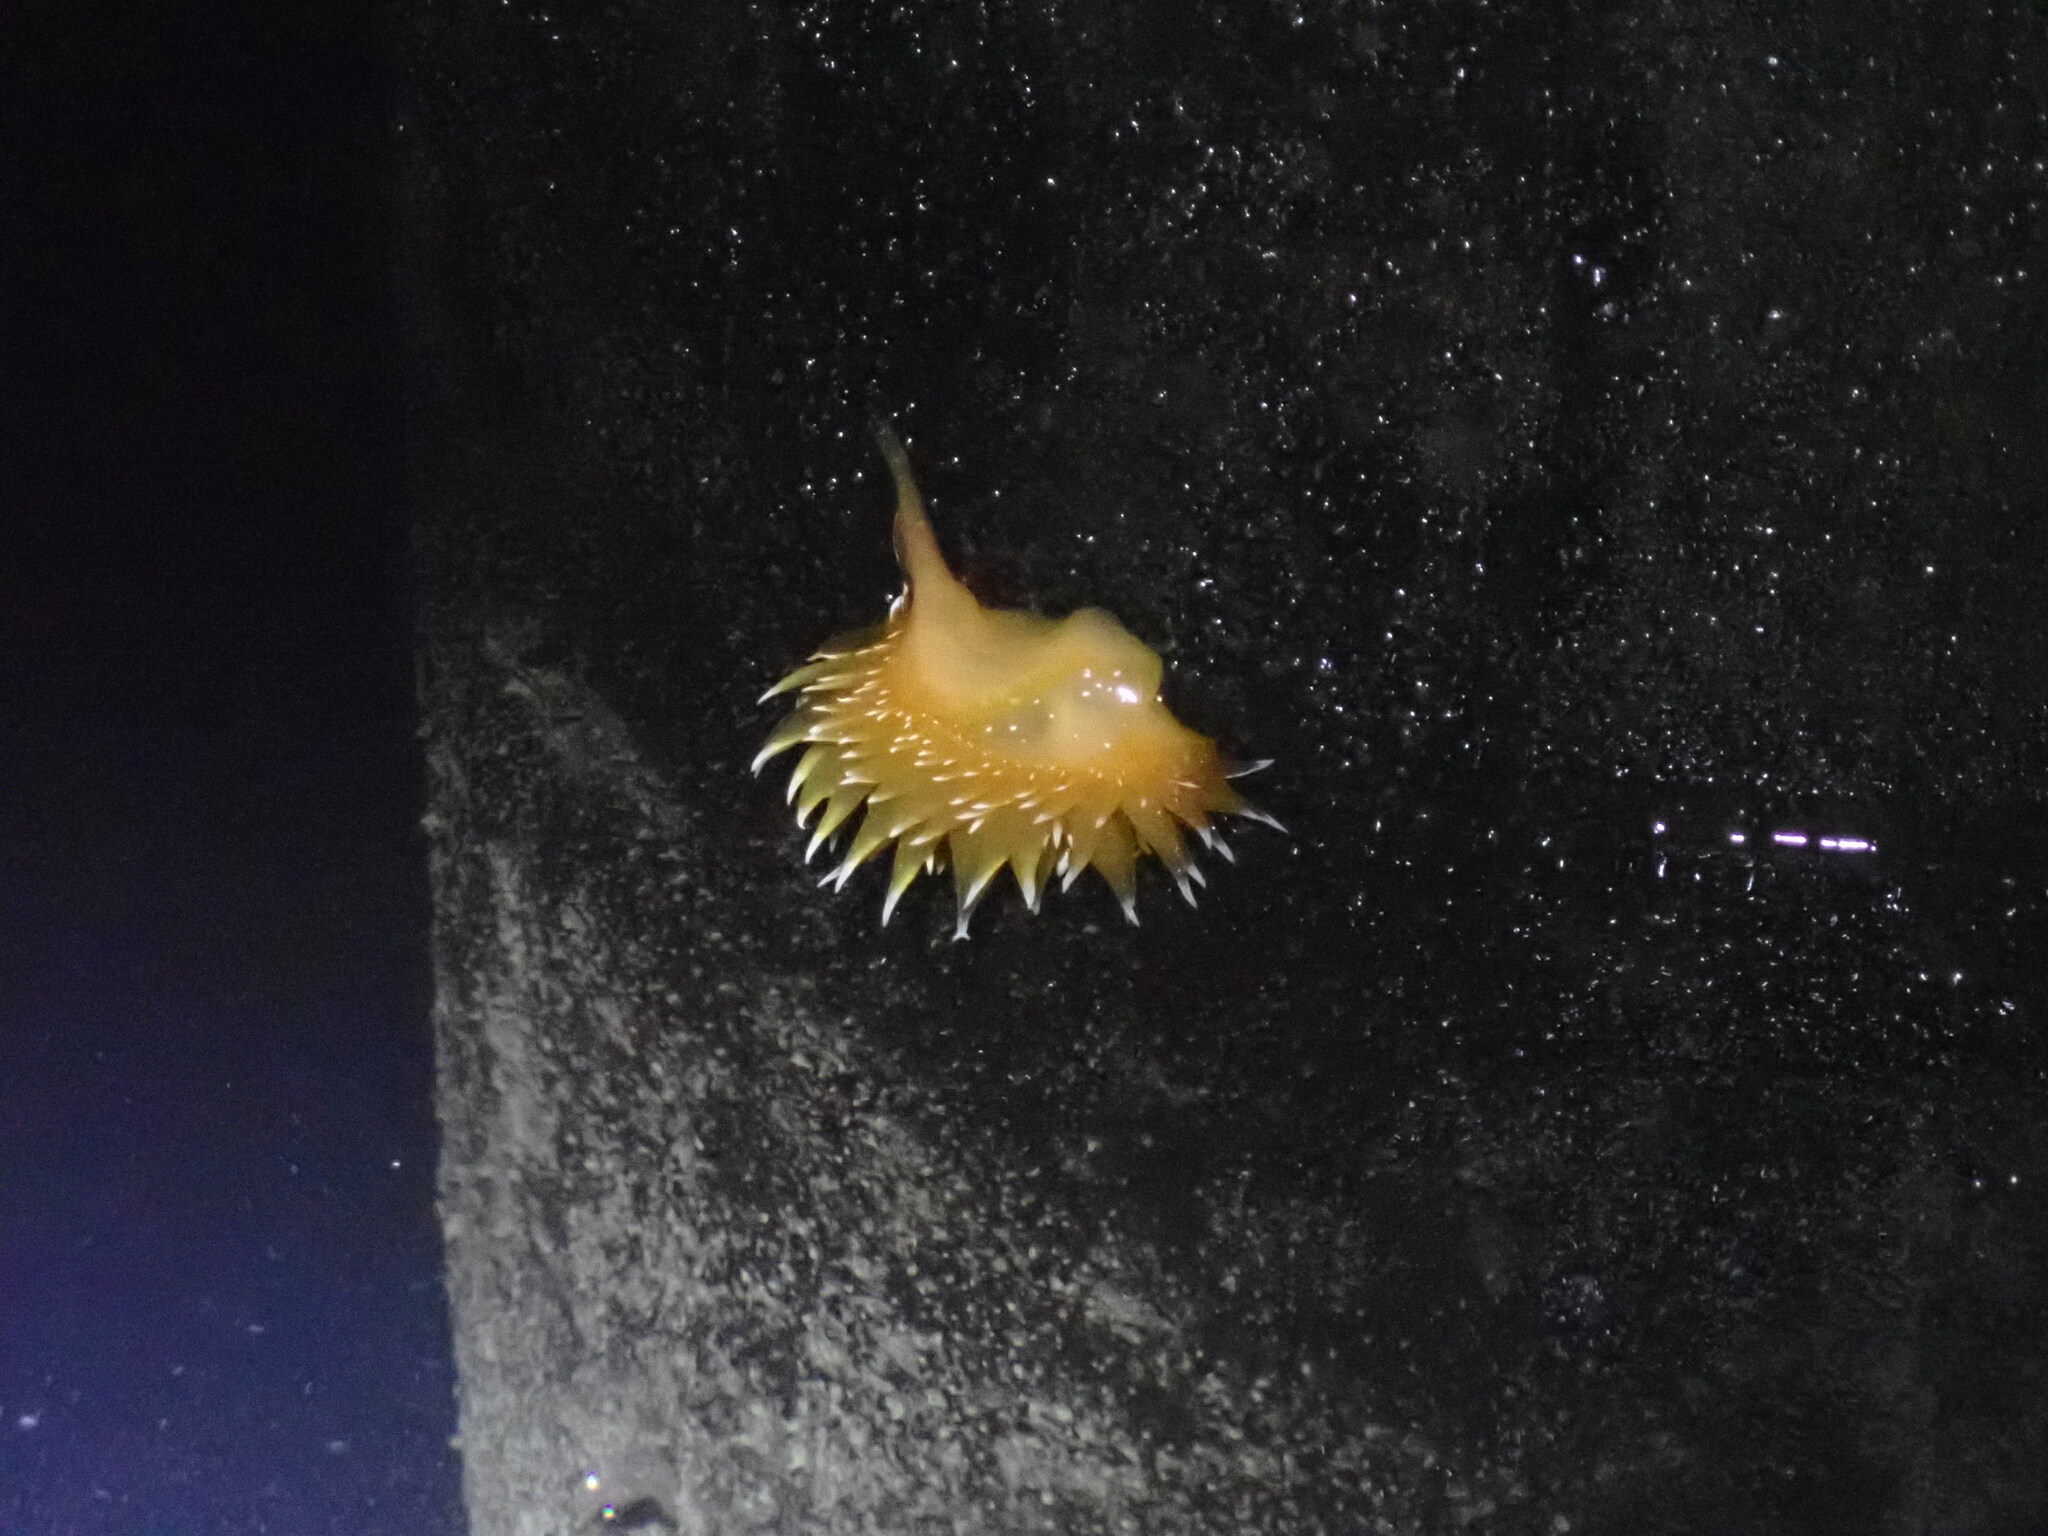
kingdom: Animalia
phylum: Mollusca
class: Gastropoda
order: Nudibranchia
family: Dironidae
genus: Dirona
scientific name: Dirona pellucida
